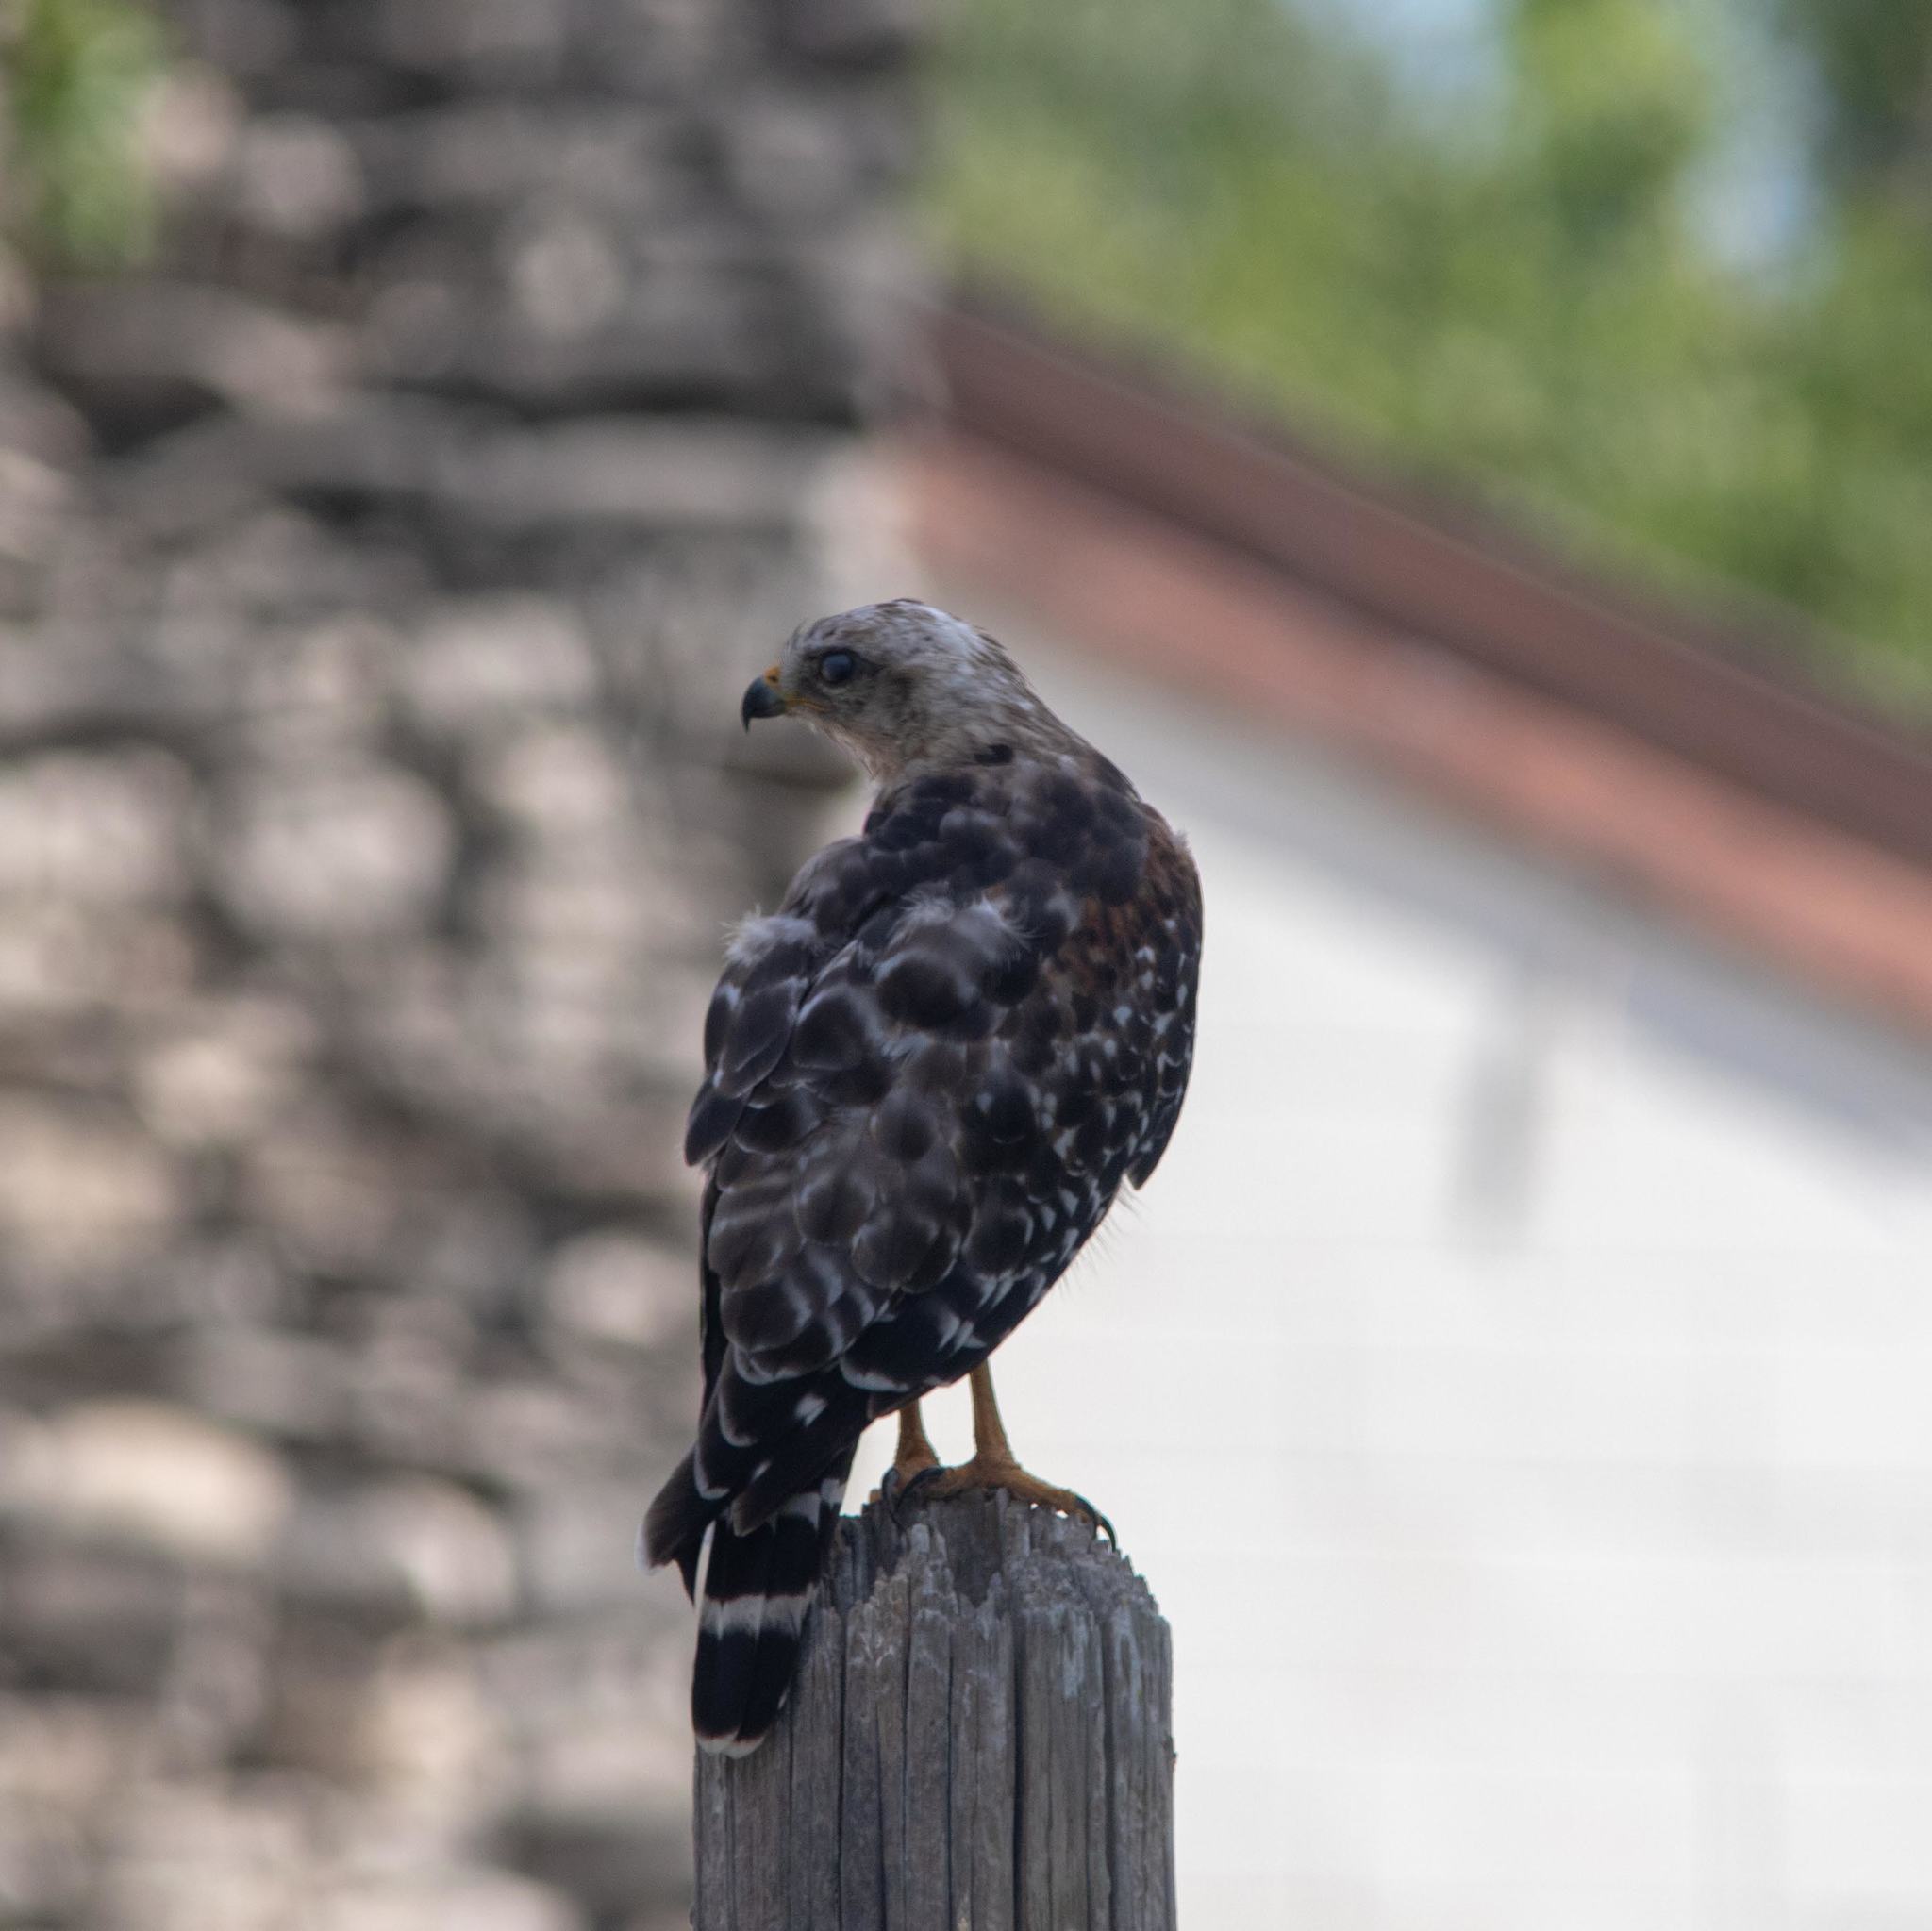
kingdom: Animalia
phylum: Chordata
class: Aves
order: Accipitriformes
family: Accipitridae
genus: Buteo
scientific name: Buteo lineatus
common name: Red-shouldered hawk
